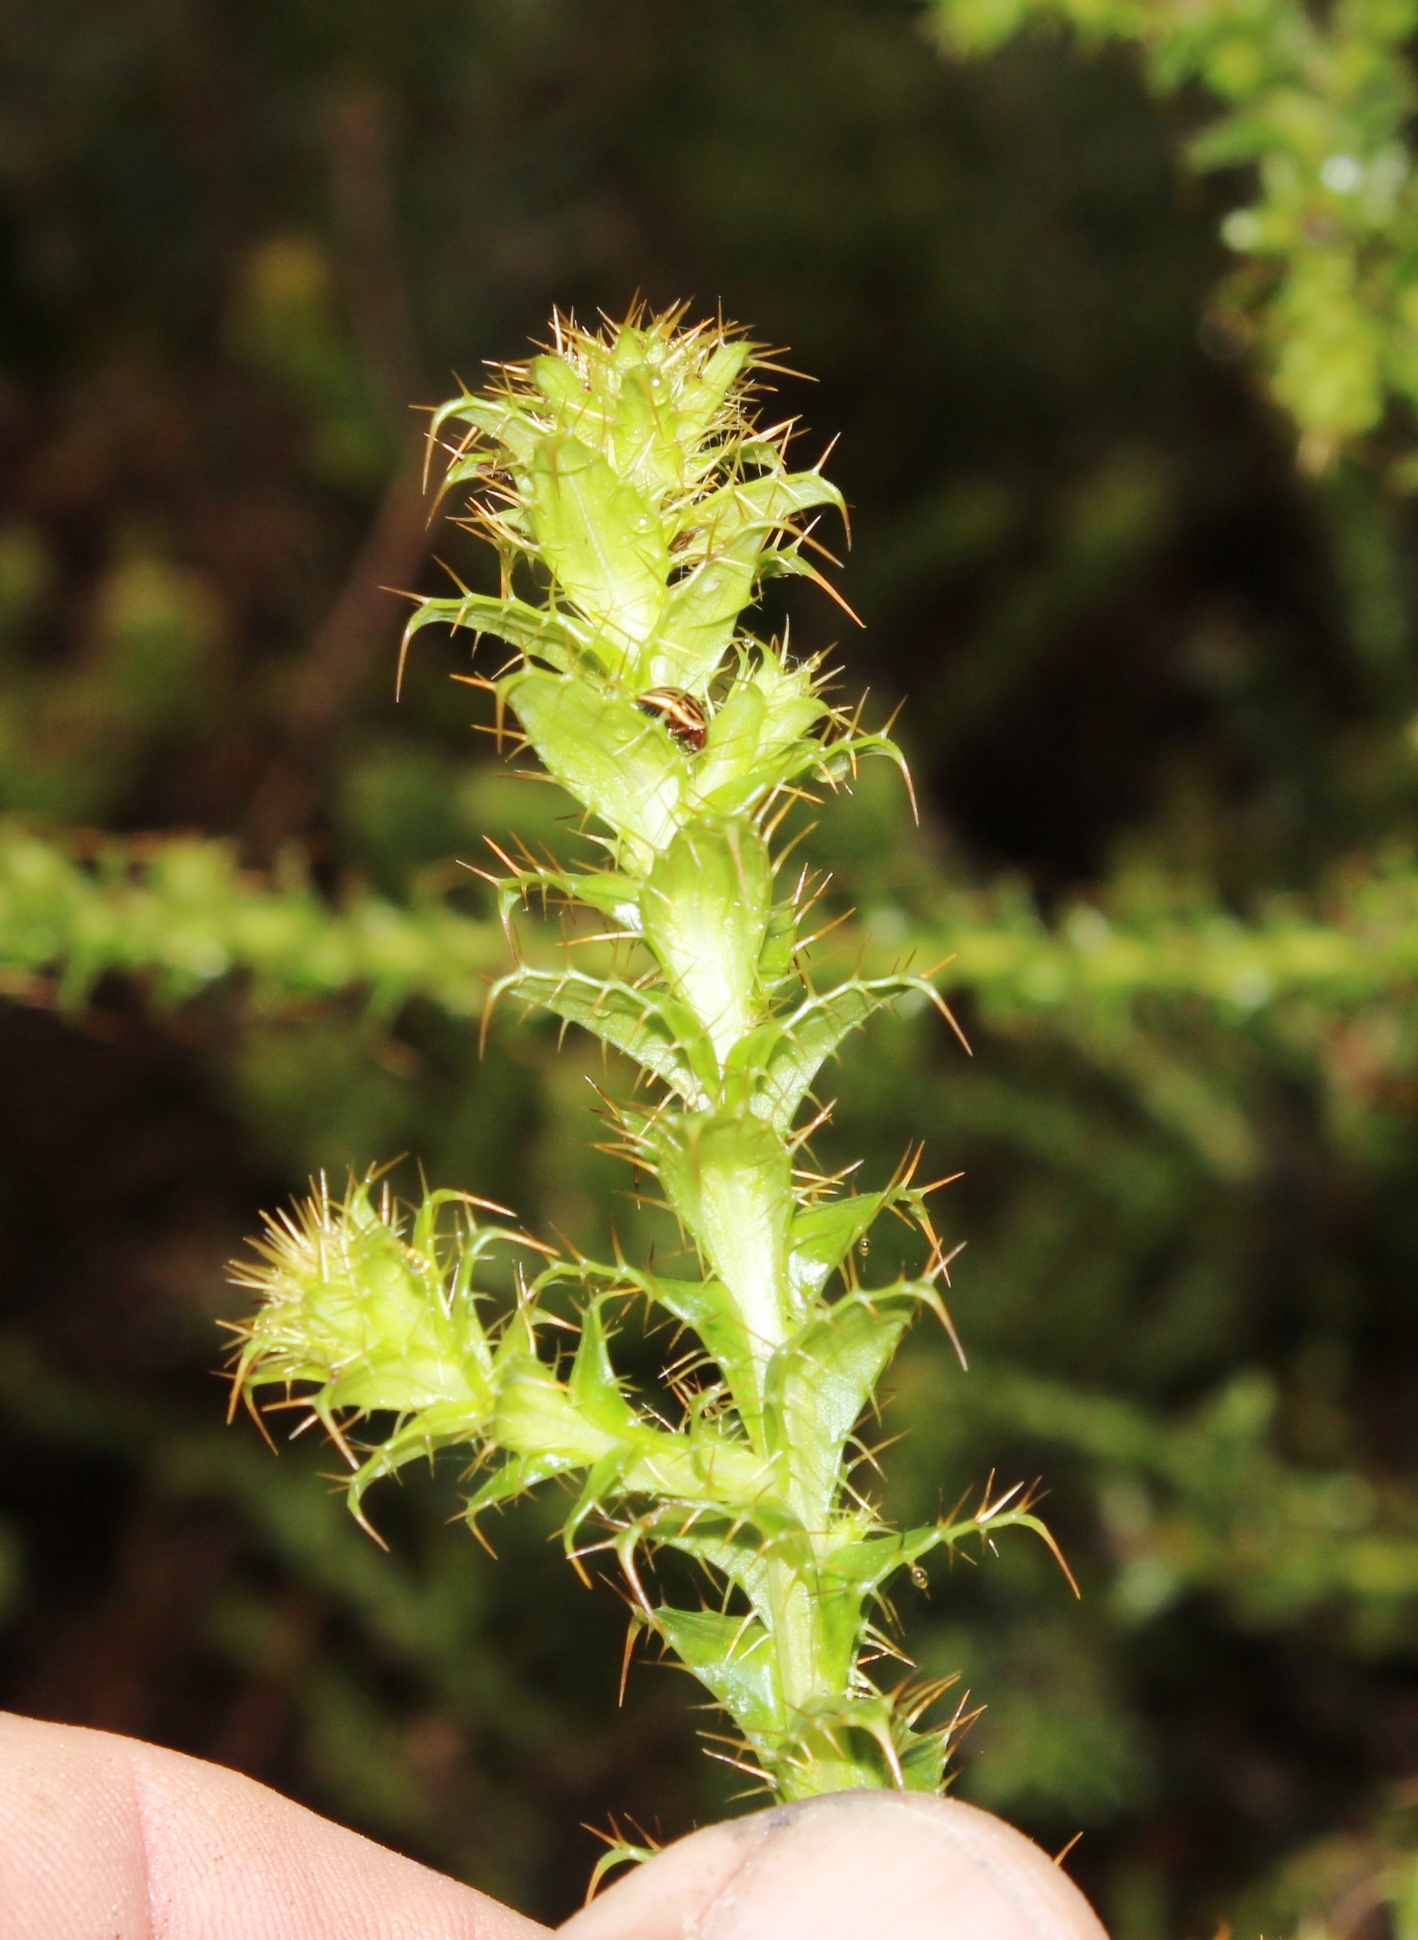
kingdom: Plantae
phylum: Tracheophyta
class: Magnoliopsida
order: Asterales
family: Asteraceae
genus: Cullumia
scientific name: Cullumia reticulata
